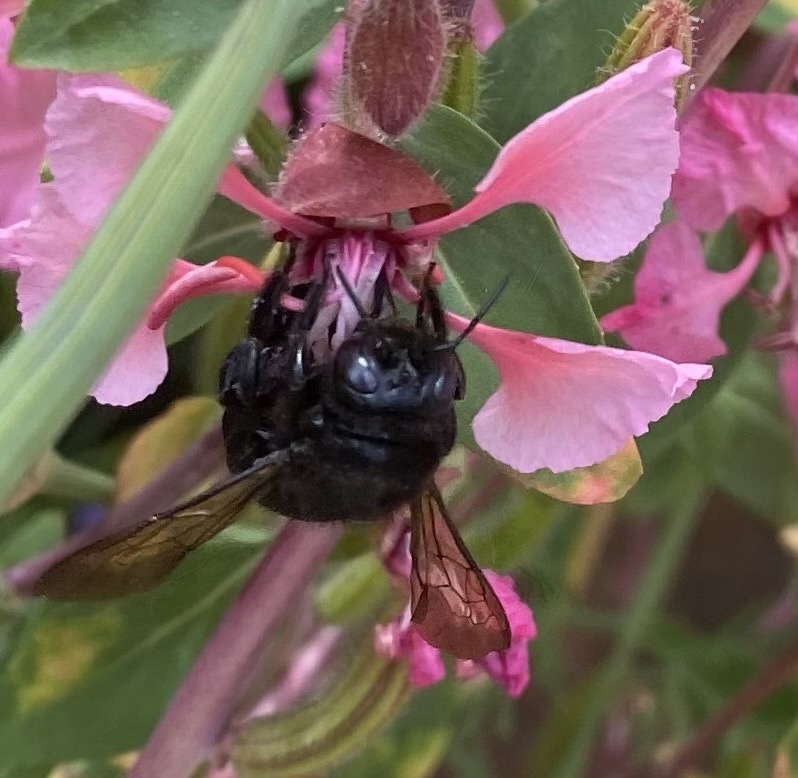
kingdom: Animalia
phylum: Arthropoda
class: Insecta
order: Hymenoptera
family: Apidae
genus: Xylocopa
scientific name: Xylocopa tabaniformis
